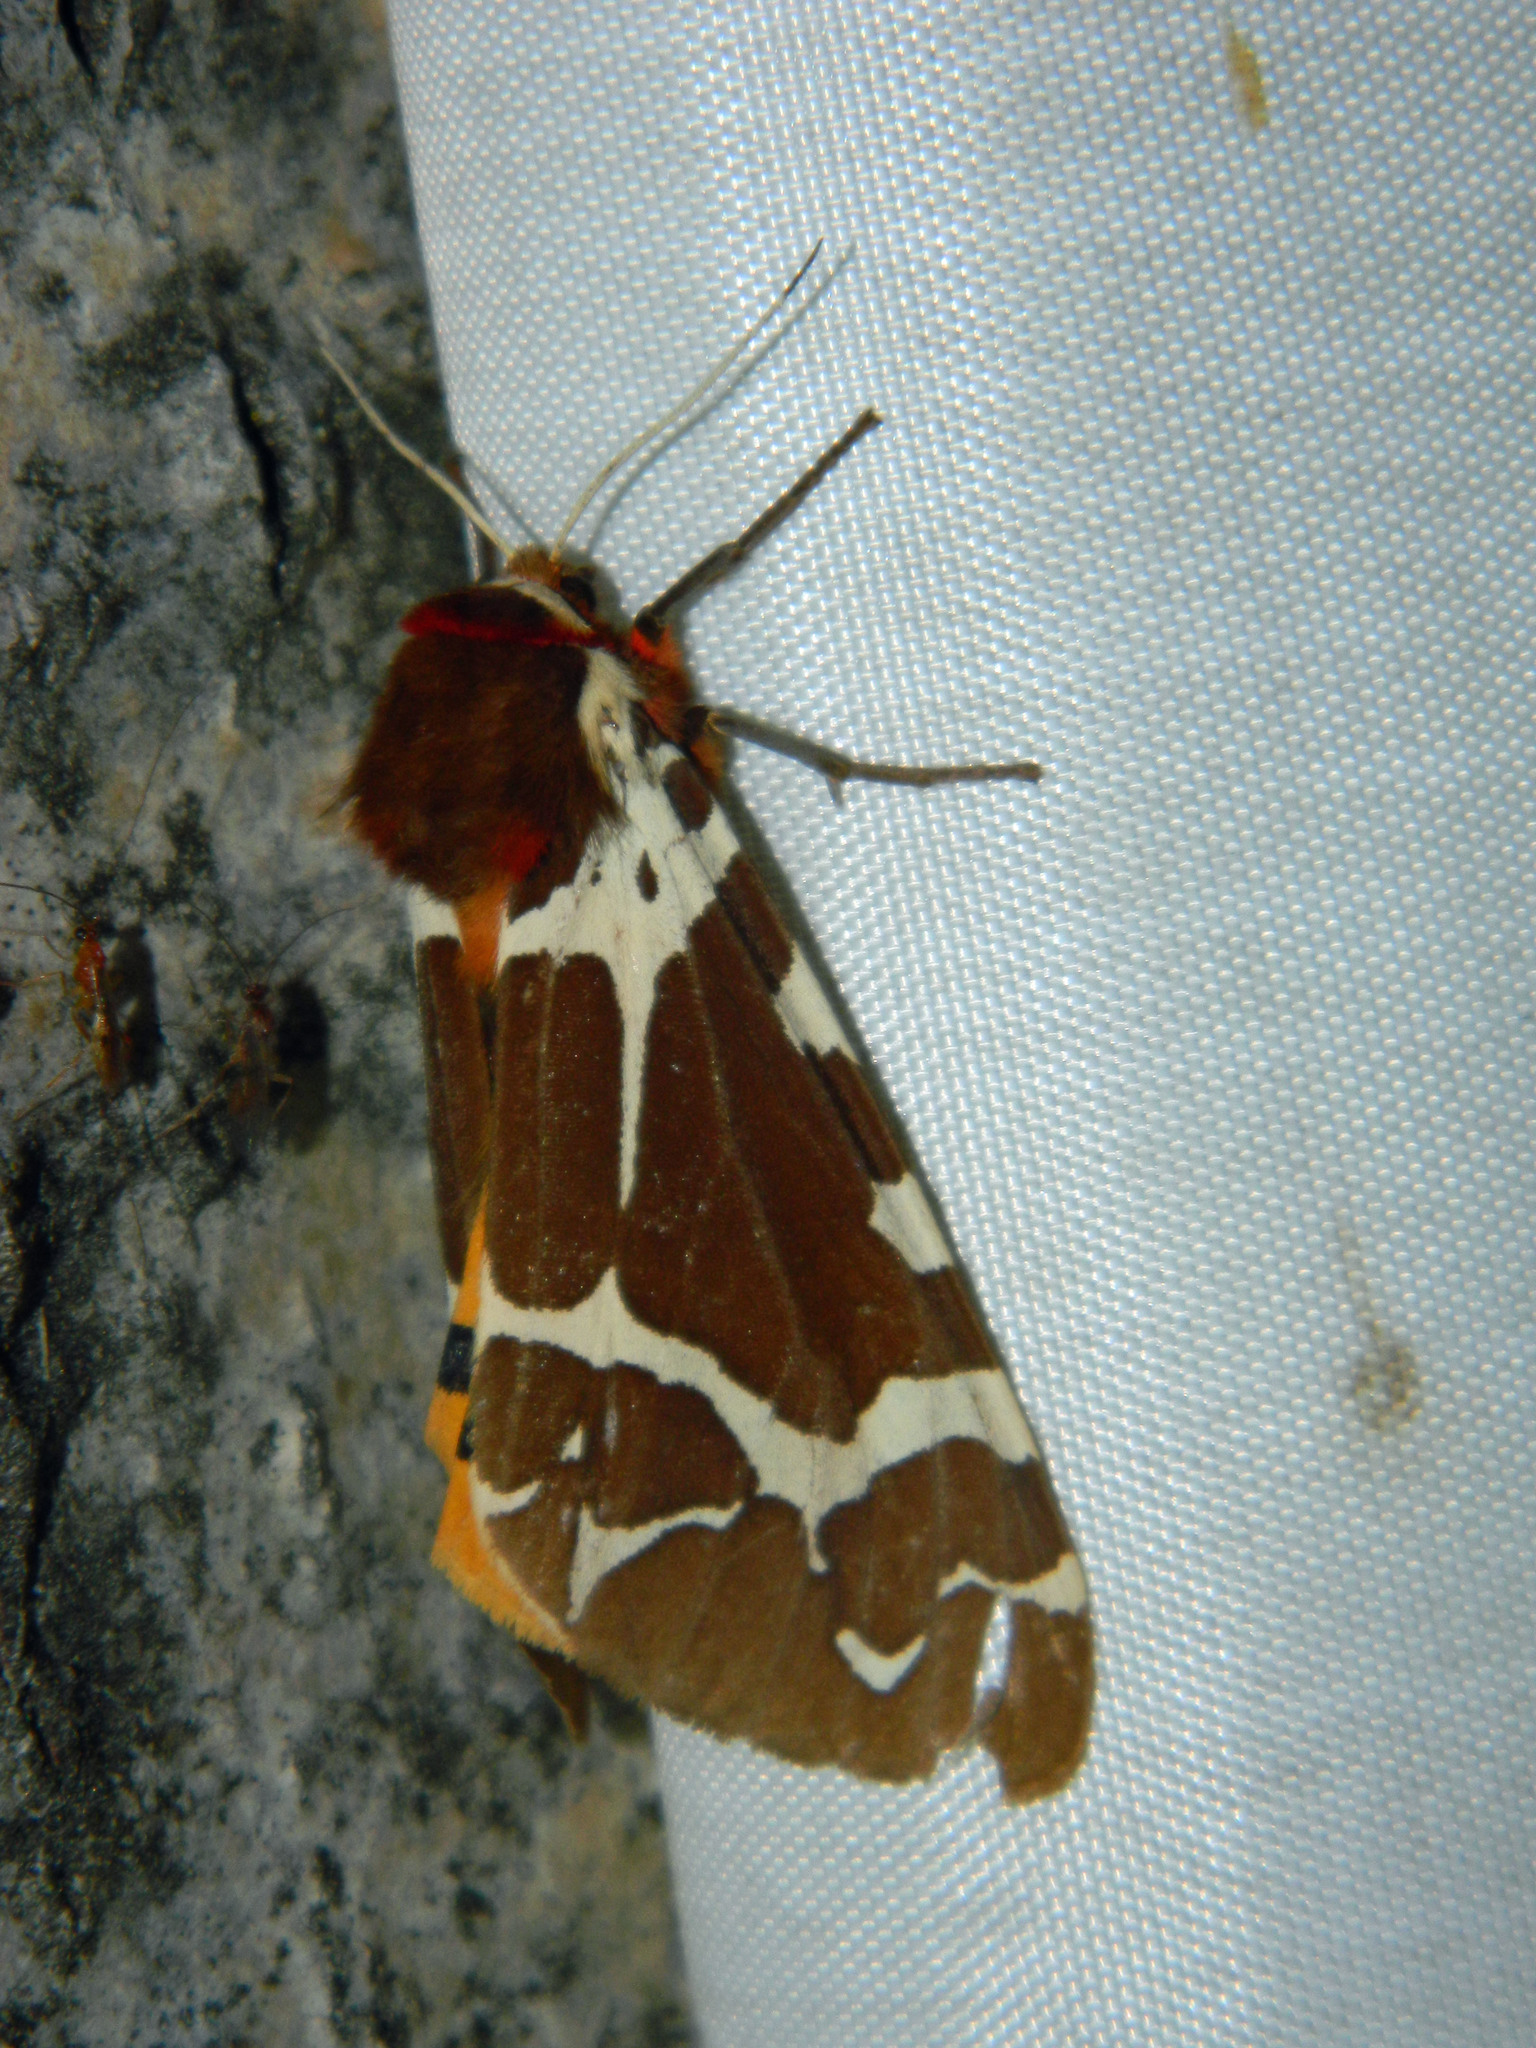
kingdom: Animalia
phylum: Arthropoda
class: Insecta
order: Lepidoptera
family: Erebidae
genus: Arctia
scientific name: Arctia caja
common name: Garden tiger
